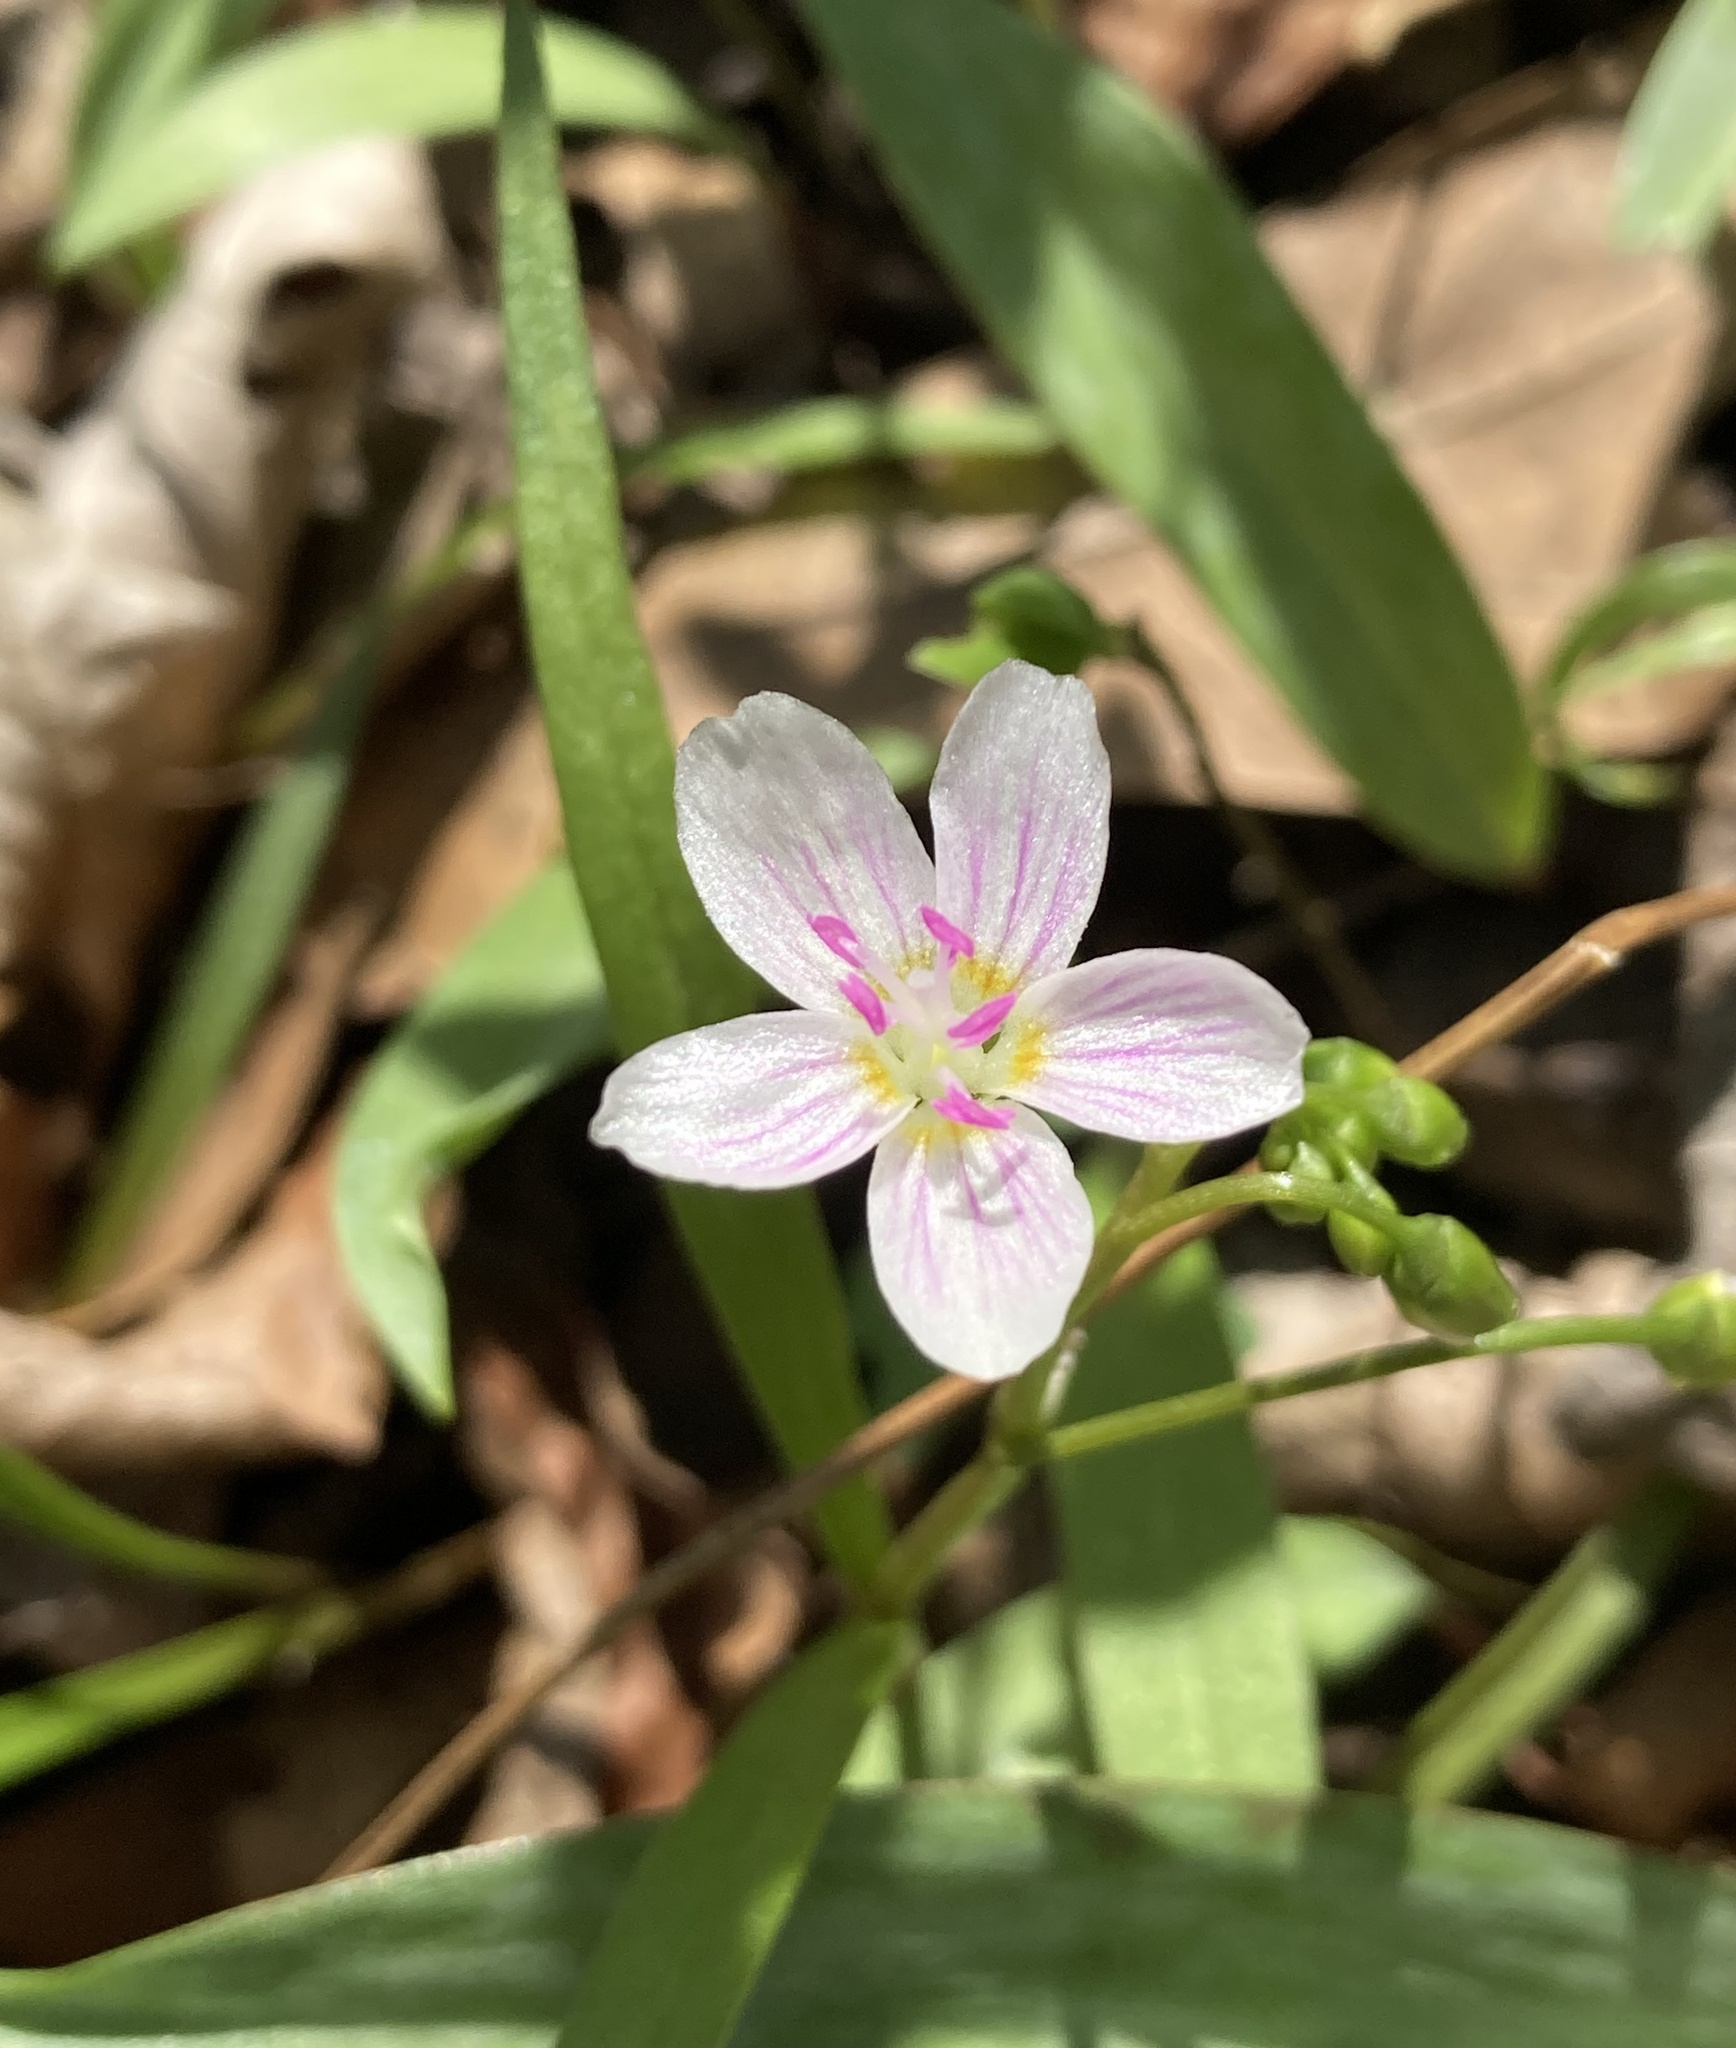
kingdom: Plantae
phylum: Tracheophyta
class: Magnoliopsida
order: Caryophyllales
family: Montiaceae
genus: Claytonia
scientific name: Claytonia virginica
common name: Virginia springbeauty
